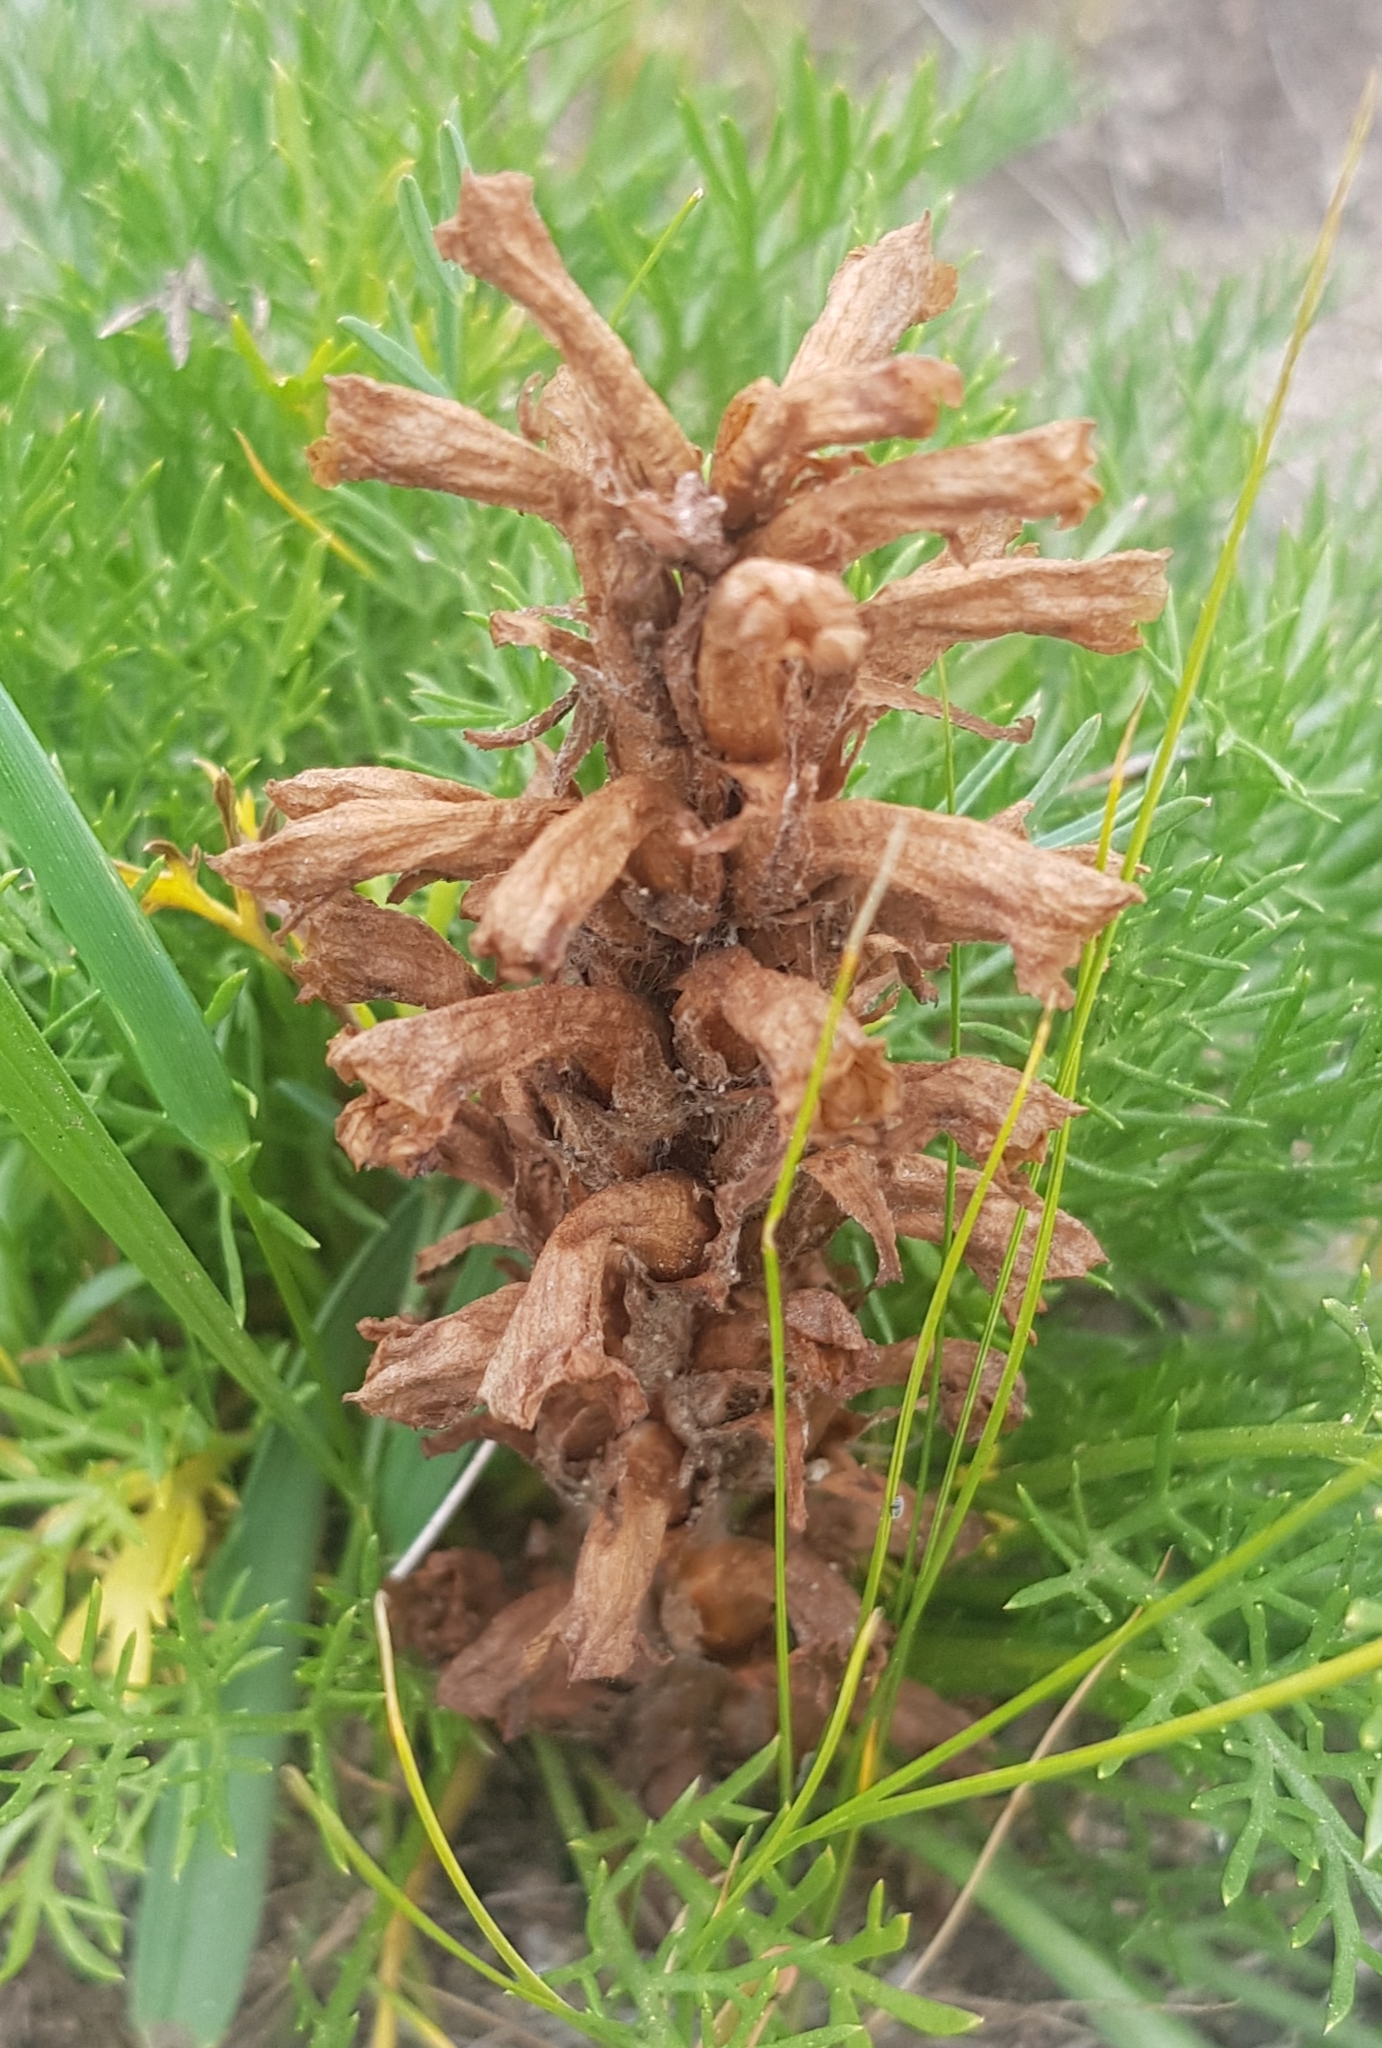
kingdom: Plantae
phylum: Tracheophyta
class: Magnoliopsida
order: Lamiales
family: Orobanchaceae
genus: Orobanche
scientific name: Orobanche coerulescens
